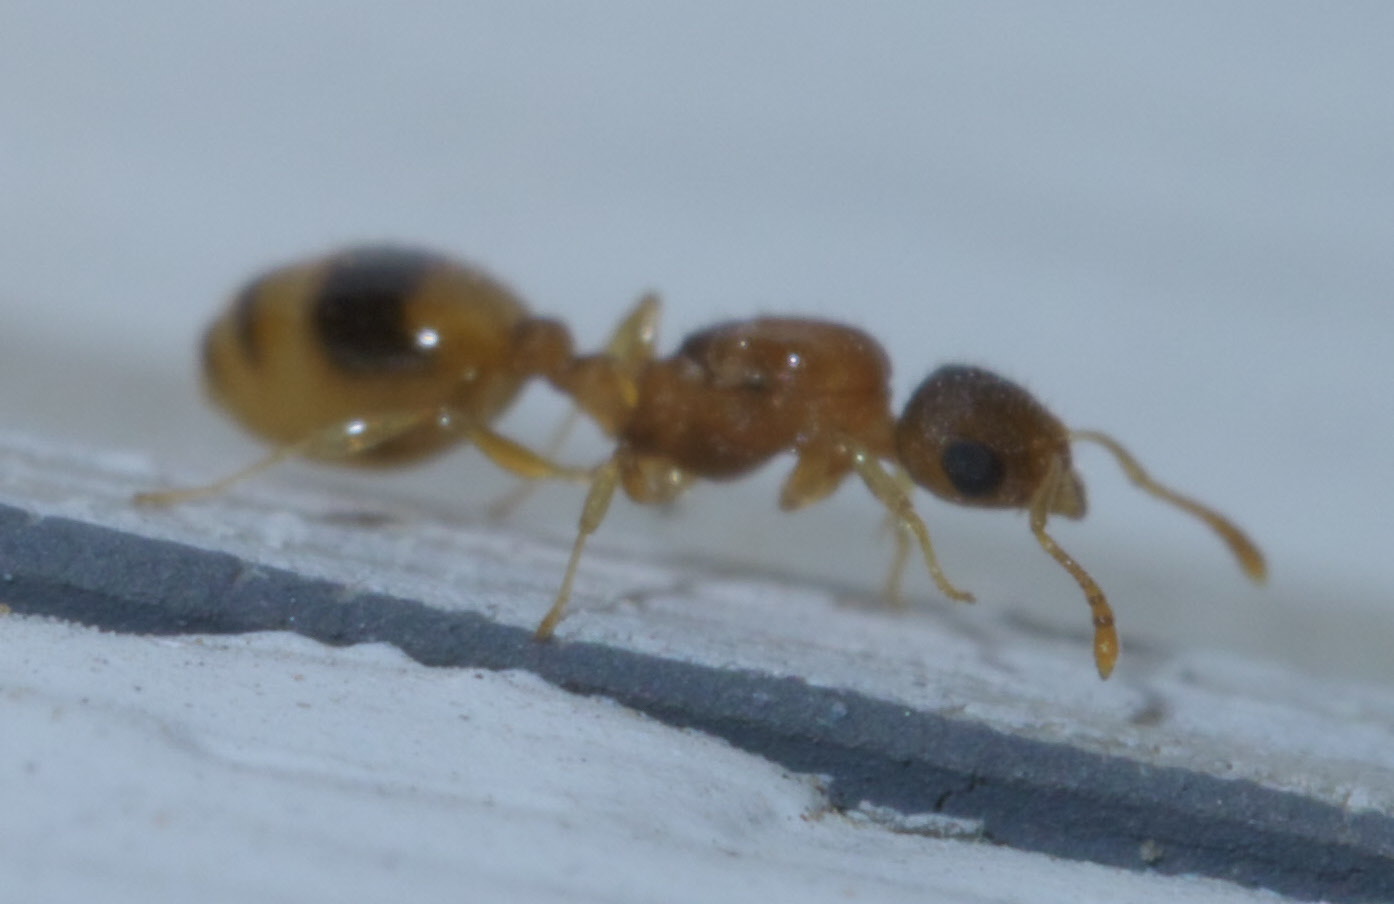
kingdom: Animalia
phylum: Arthropoda
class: Insecta
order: Hymenoptera
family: Formicidae
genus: Temnothorax
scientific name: Temnothorax curvispinosus
